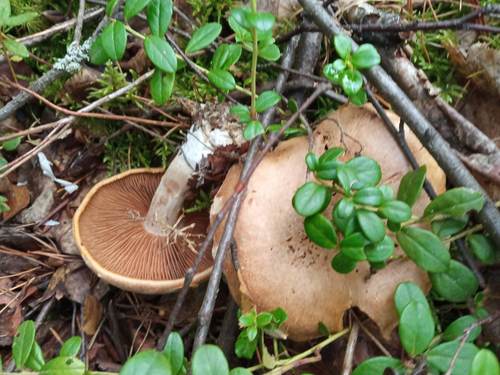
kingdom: Fungi
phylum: Basidiomycota
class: Agaricomycetes
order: Agaricales
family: Cortinariaceae
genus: Cortinarius
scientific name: Cortinarius
